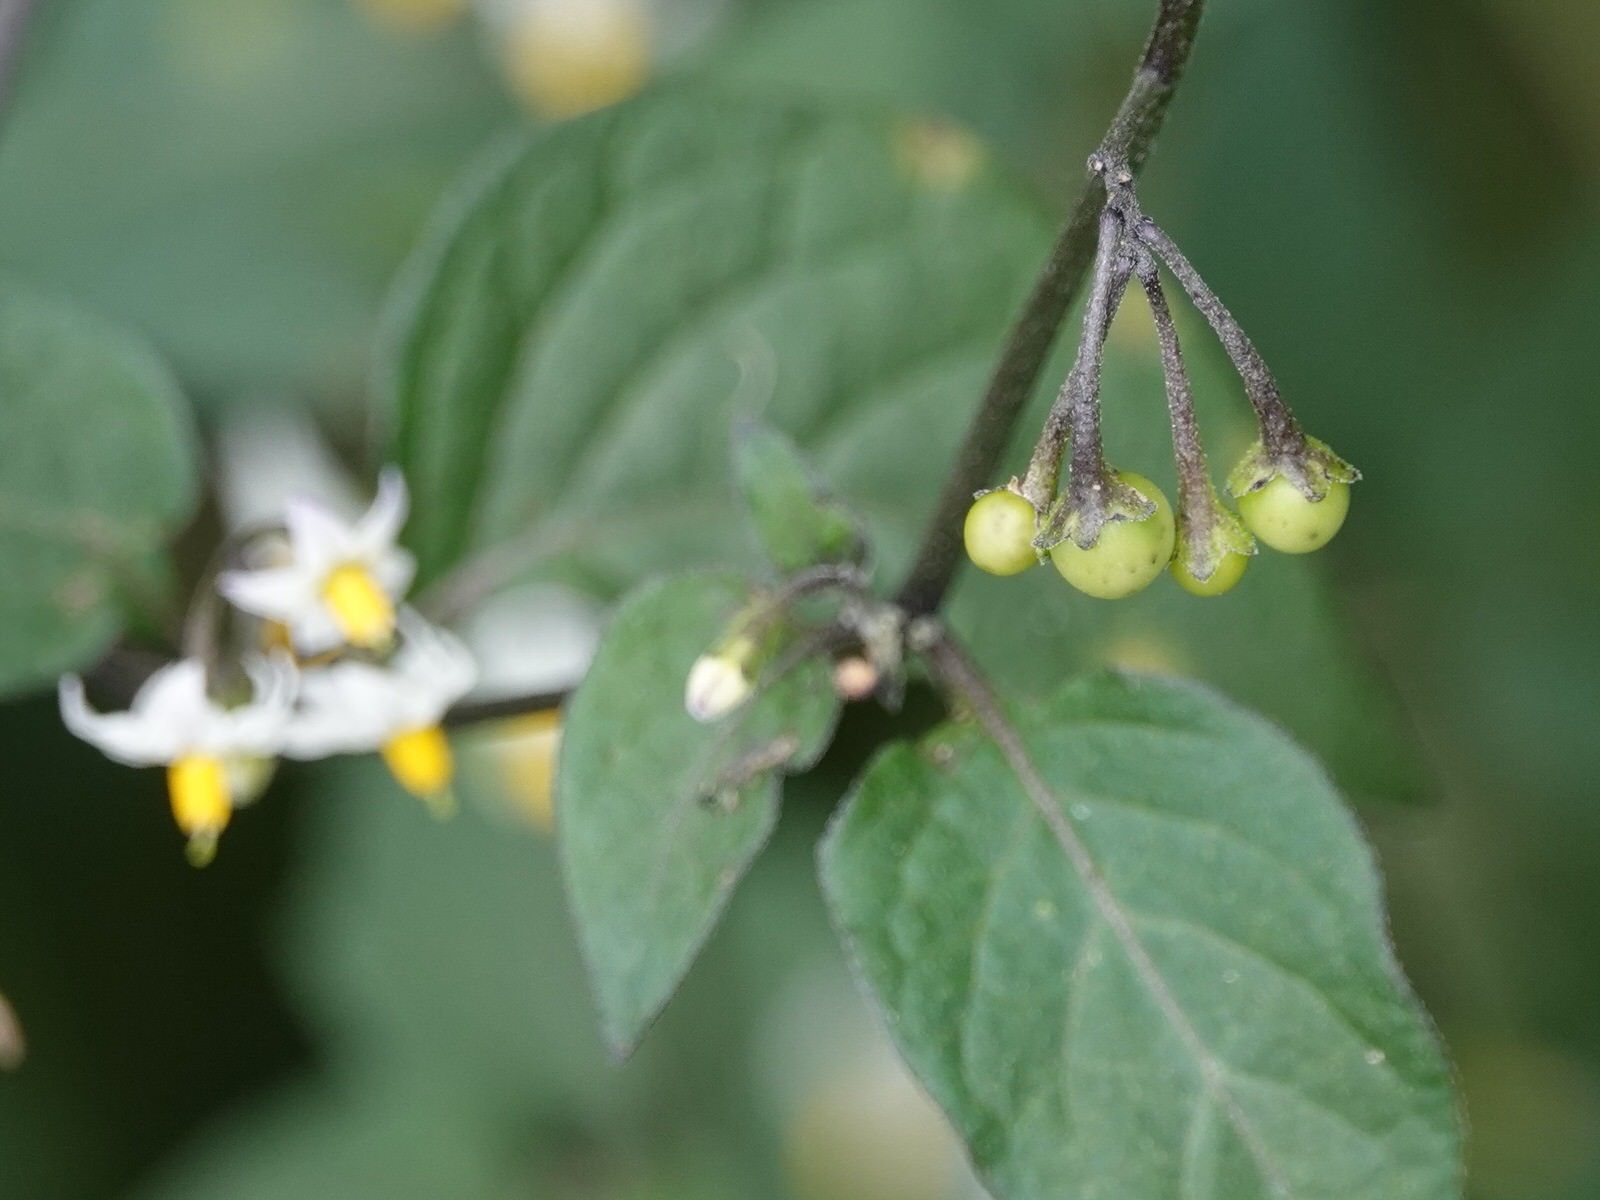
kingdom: Plantae
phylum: Tracheophyta
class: Magnoliopsida
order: Solanales
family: Solanaceae
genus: Solanum
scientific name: Solanum nigrum
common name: Black nightshade
